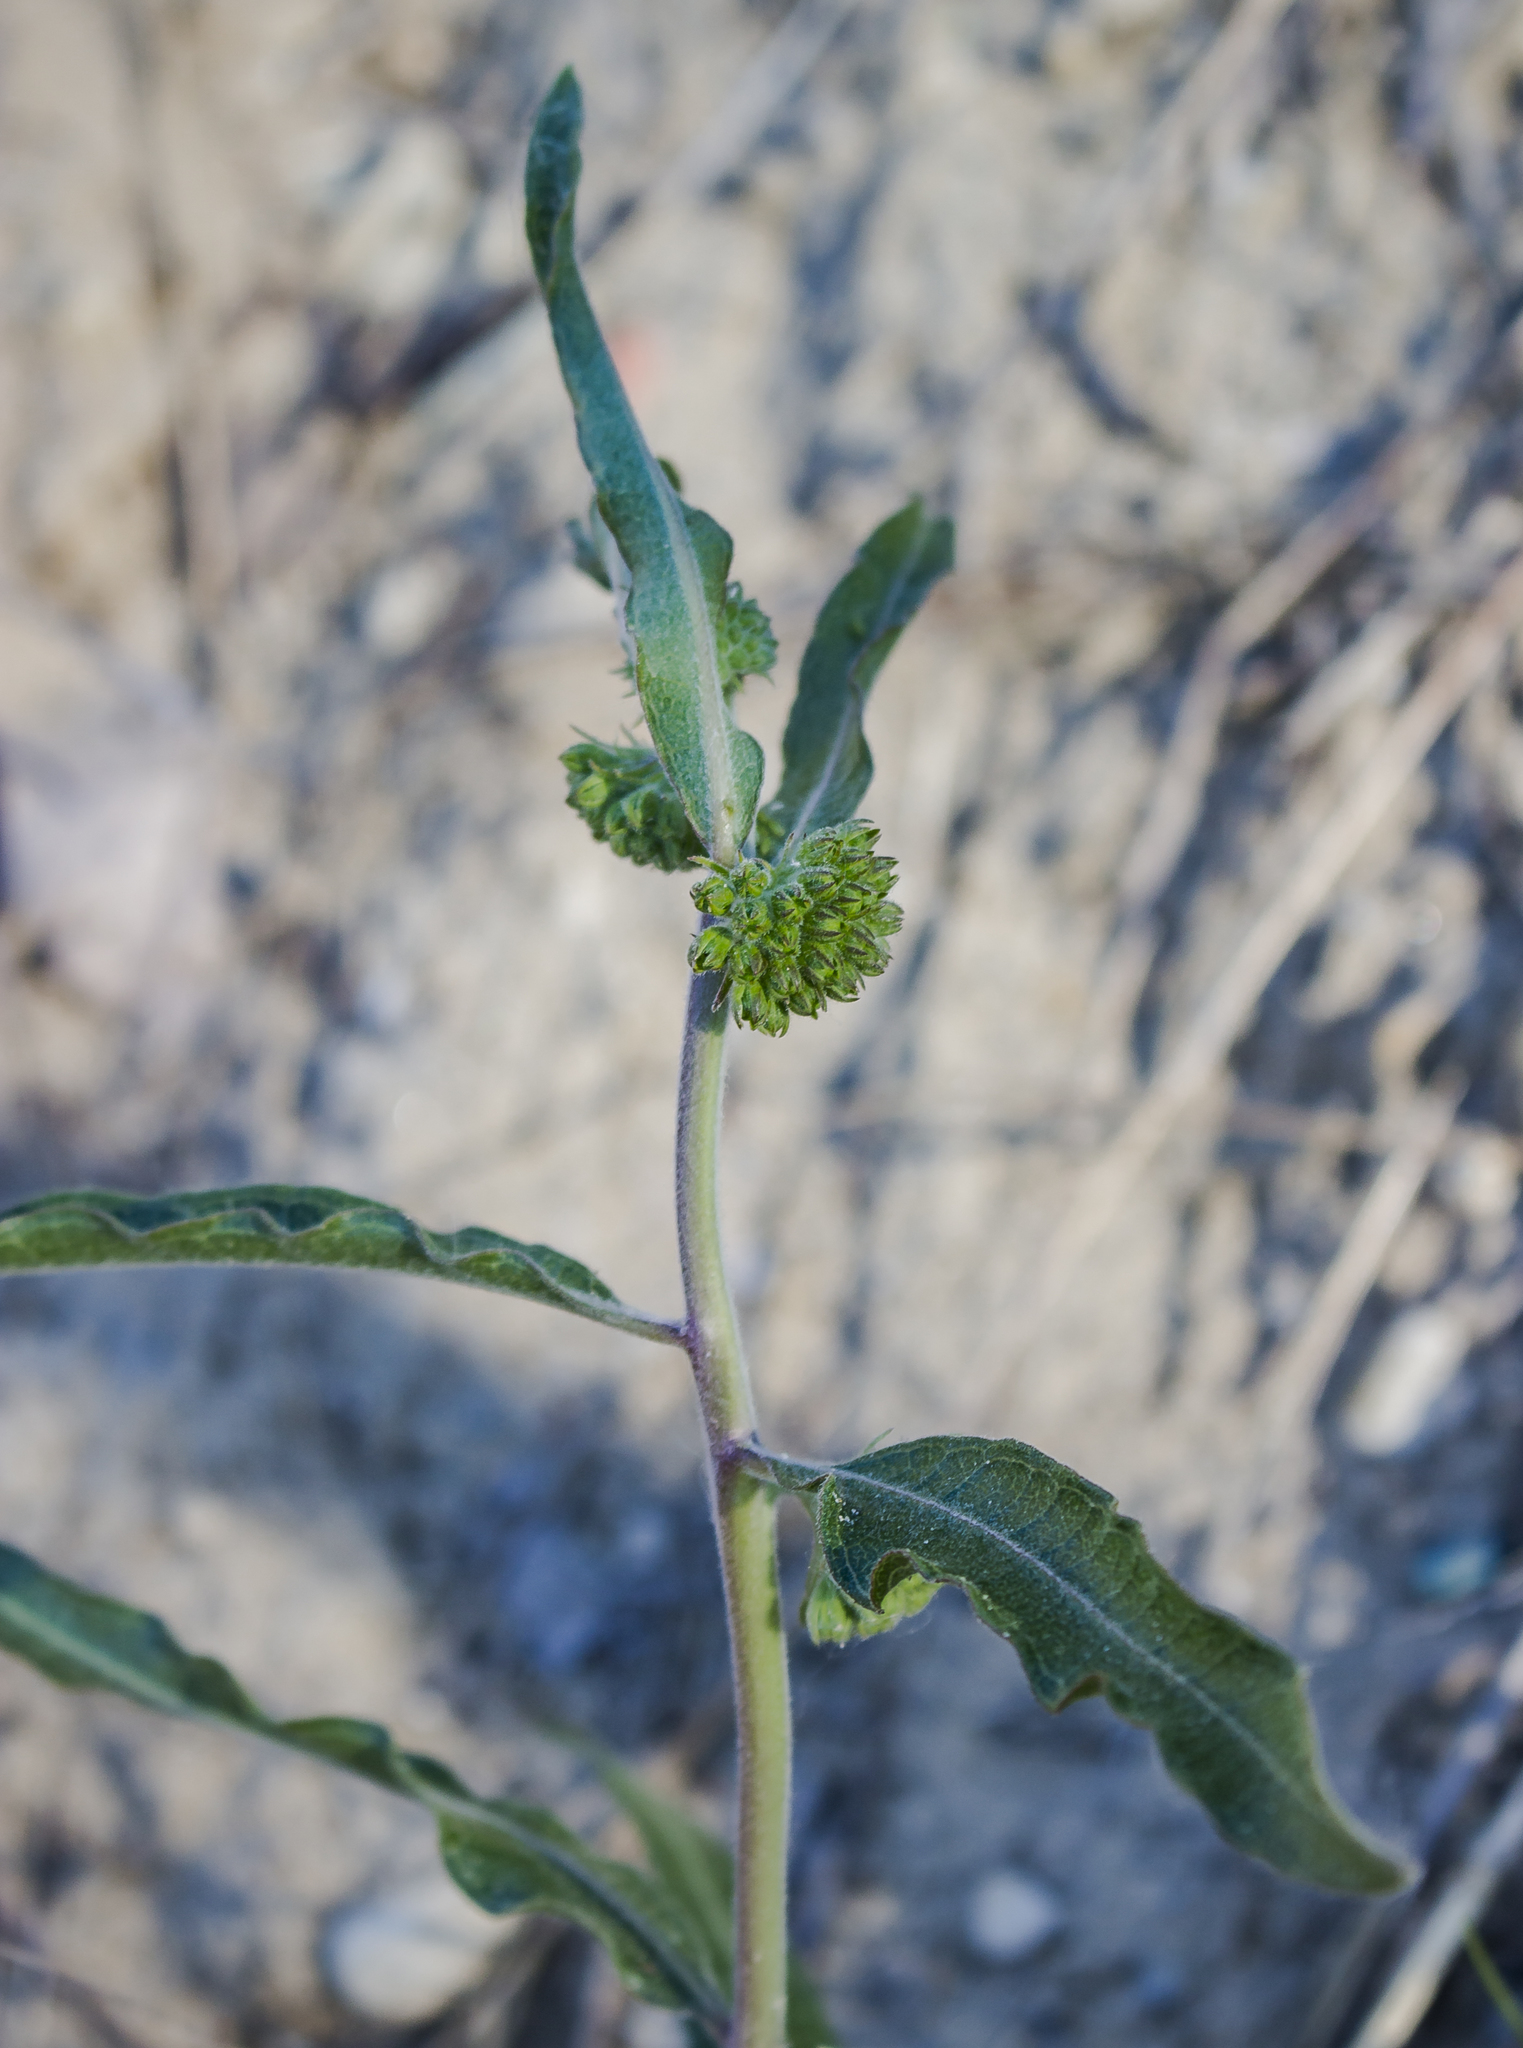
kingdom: Plantae
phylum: Tracheophyta
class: Magnoliopsida
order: Gentianales
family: Apocynaceae
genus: Asclepias
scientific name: Asclepias viridiflora
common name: Green comet milkweed
